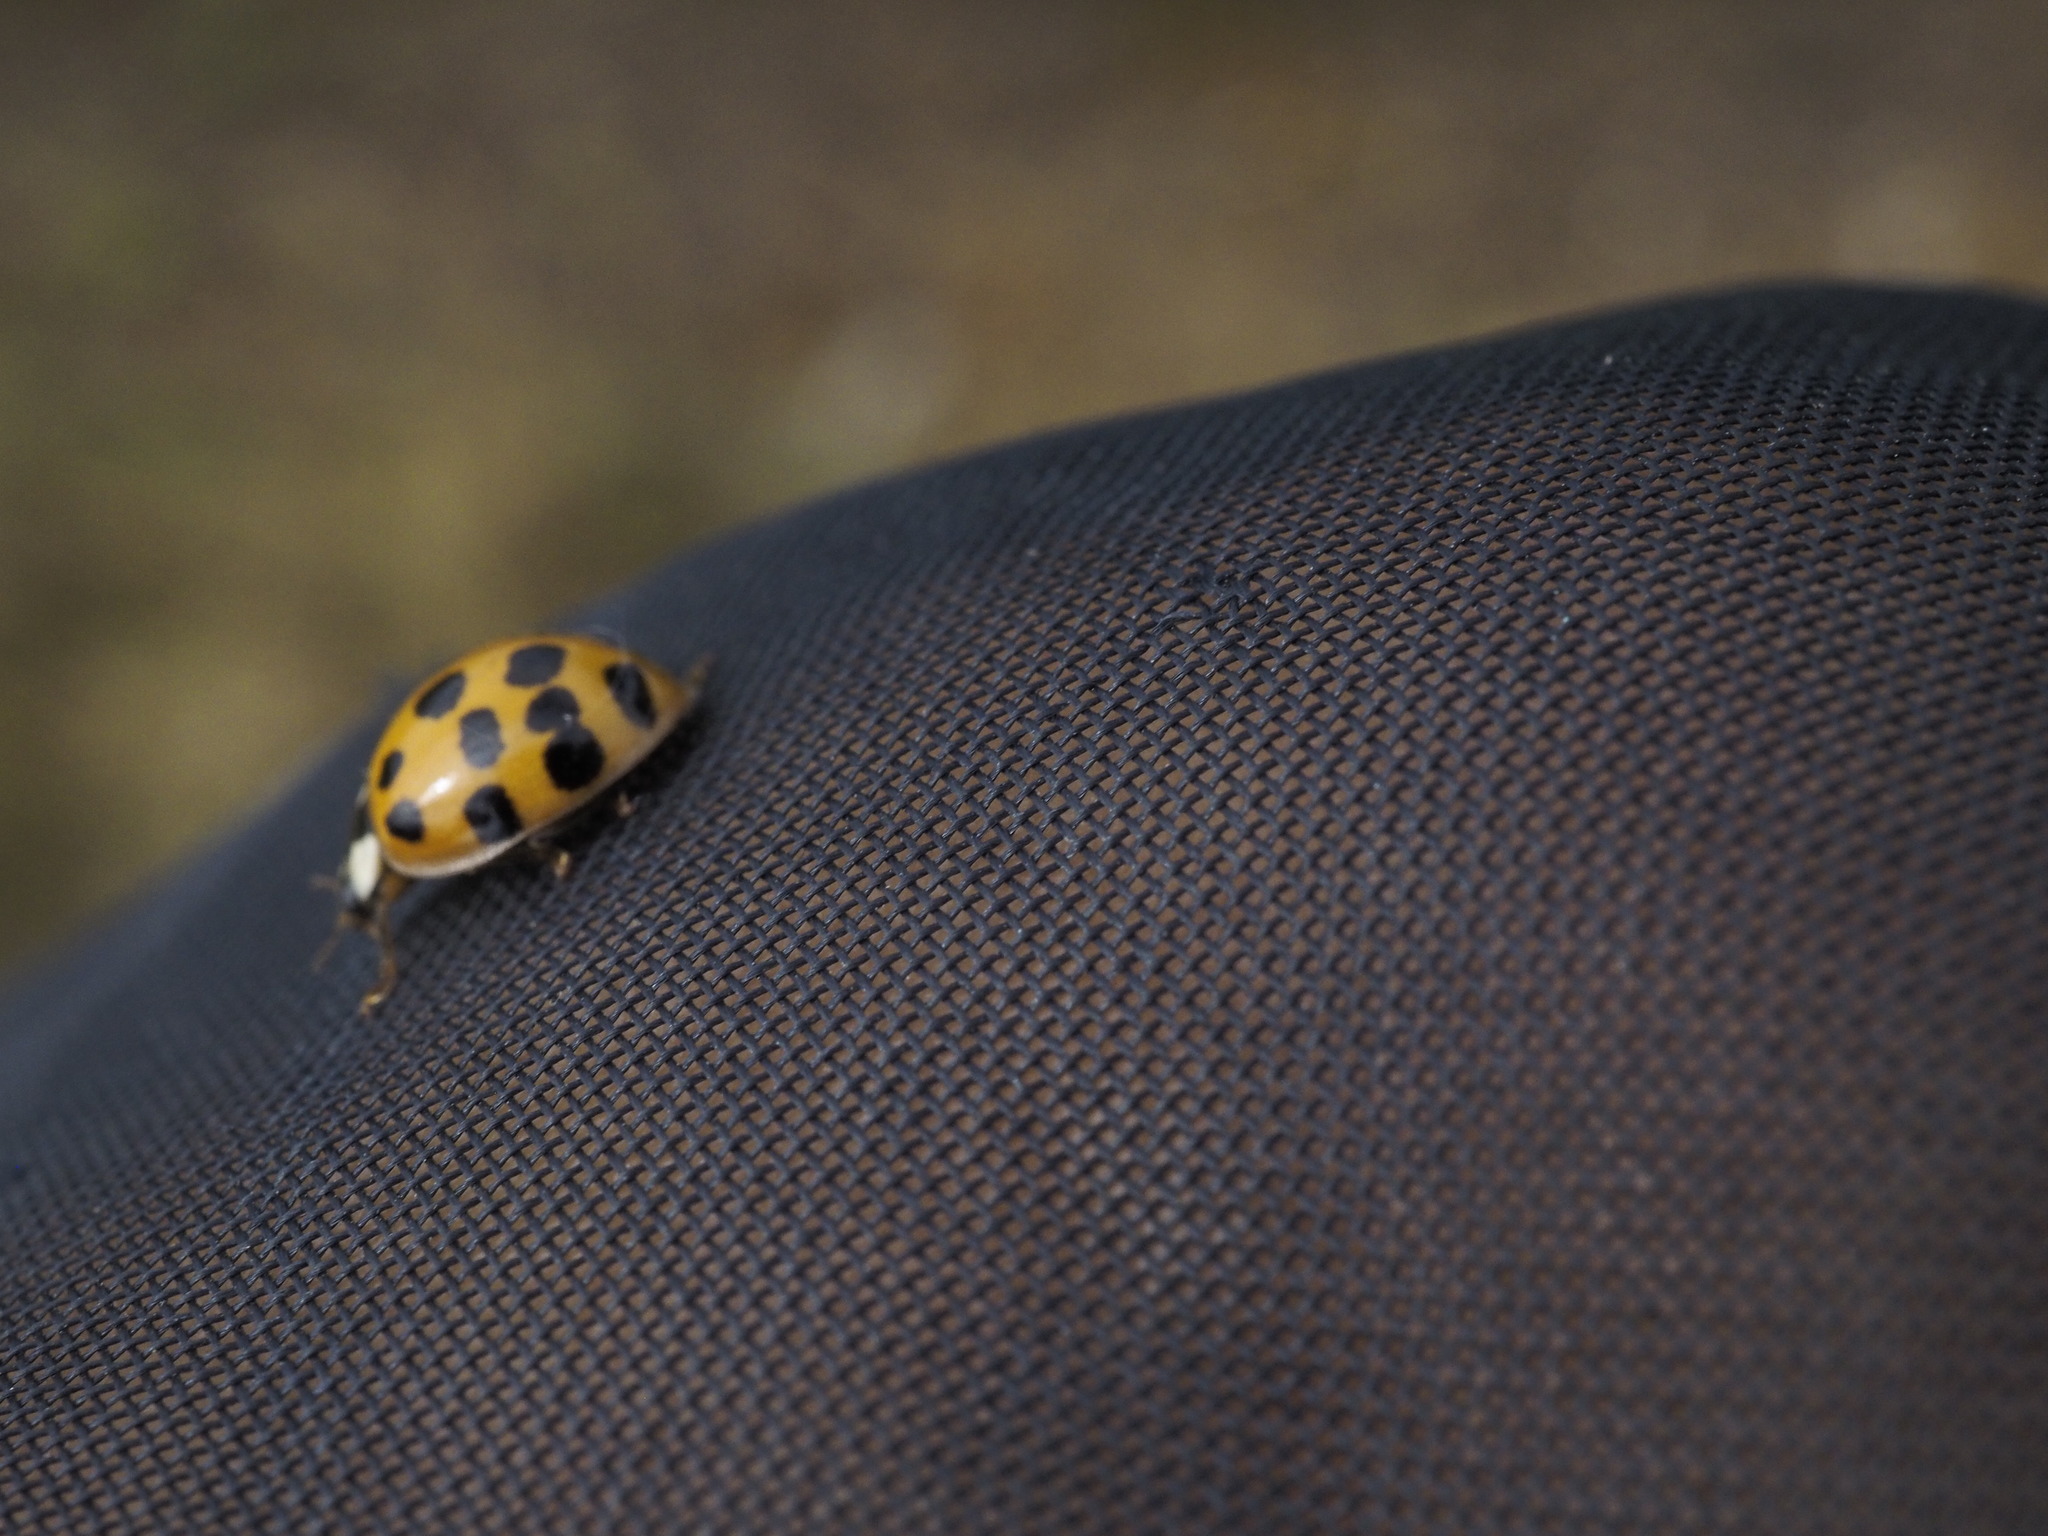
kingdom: Animalia
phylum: Arthropoda
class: Insecta
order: Coleoptera
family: Coccinellidae
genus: Harmonia
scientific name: Harmonia axyridis
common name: Harlequin ladybird
